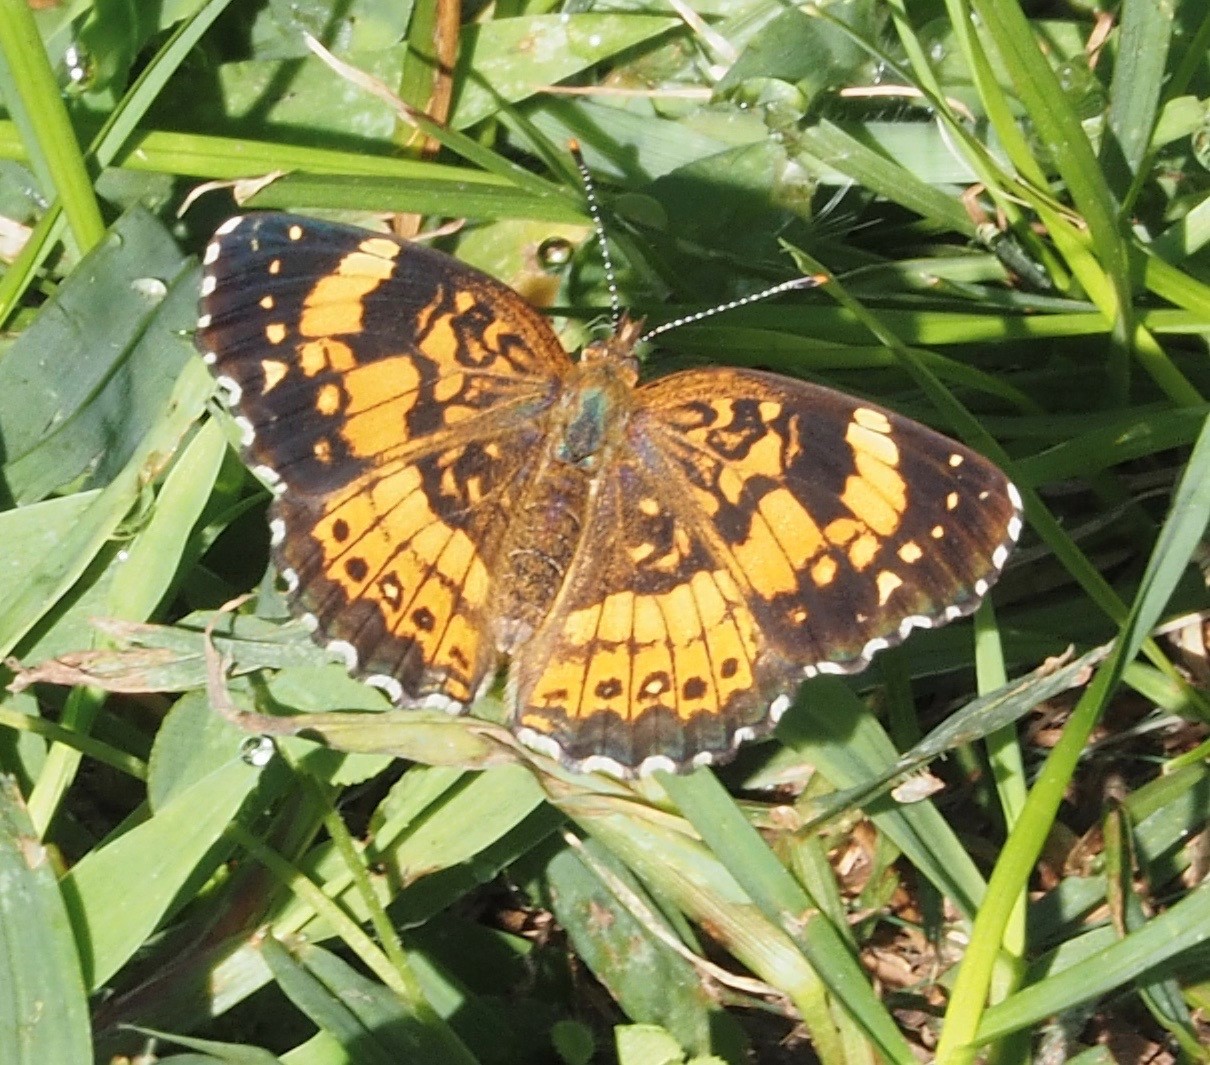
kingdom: Animalia
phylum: Arthropoda
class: Insecta
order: Lepidoptera
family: Nymphalidae
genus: Chlosyne
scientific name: Chlosyne nycteis
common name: Silvery checkerspot
